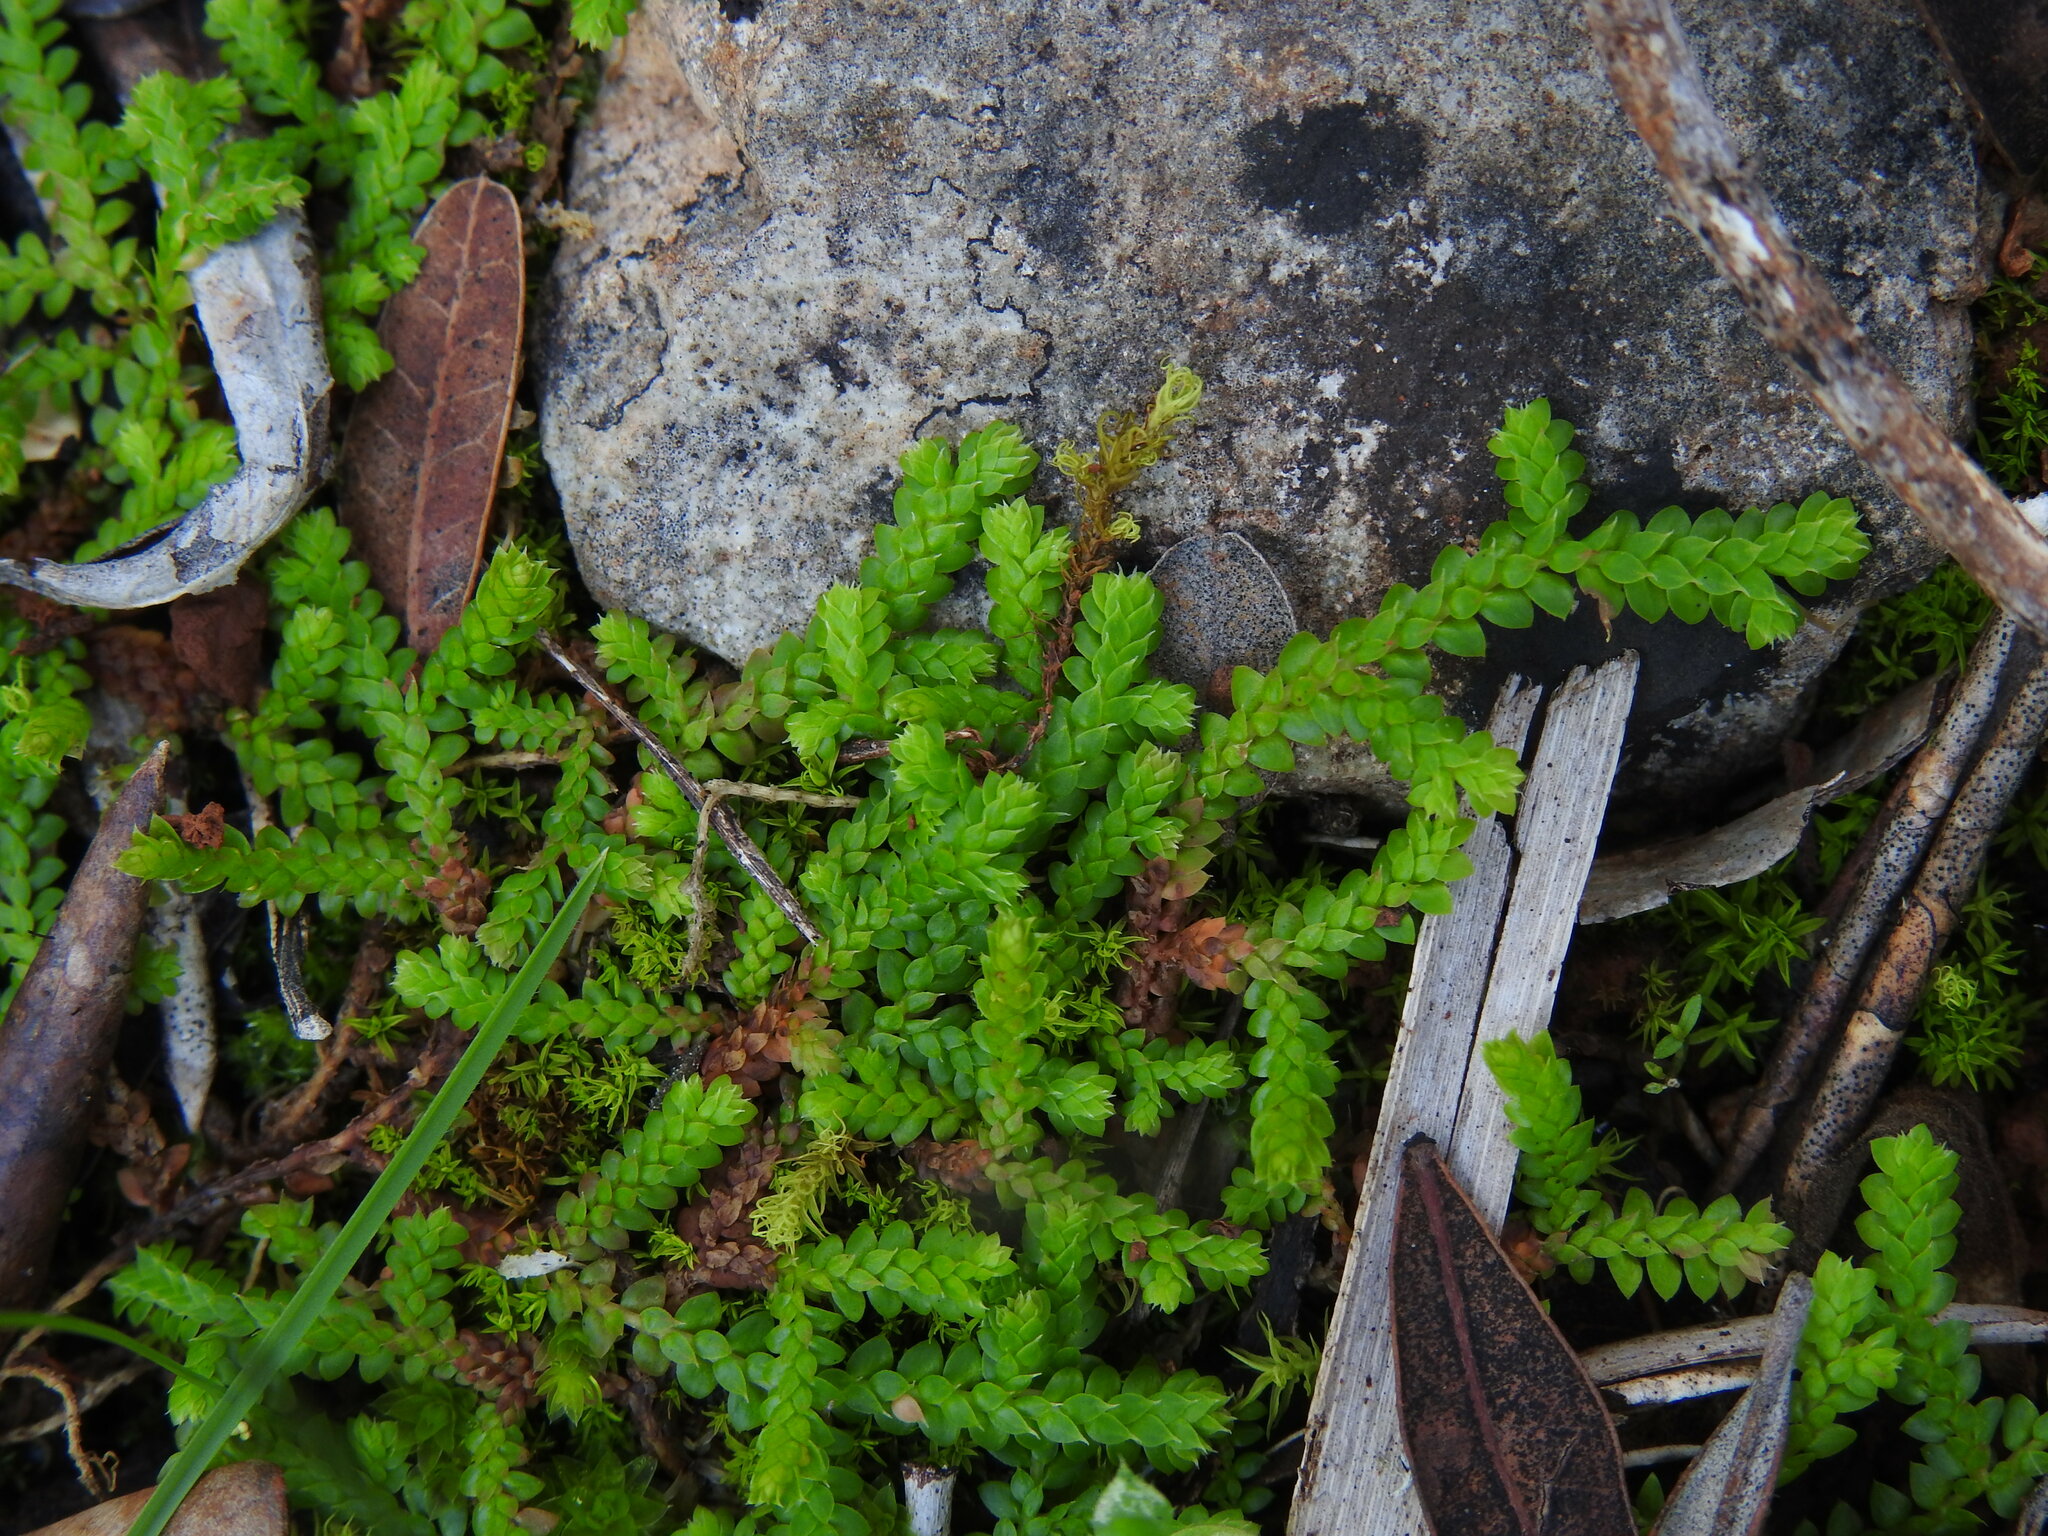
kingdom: Plantae
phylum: Tracheophyta
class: Lycopodiopsida
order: Selaginellales
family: Selaginellaceae
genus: Selaginella
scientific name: Selaginella denticulata
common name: Toothed-leaved clubmoss
